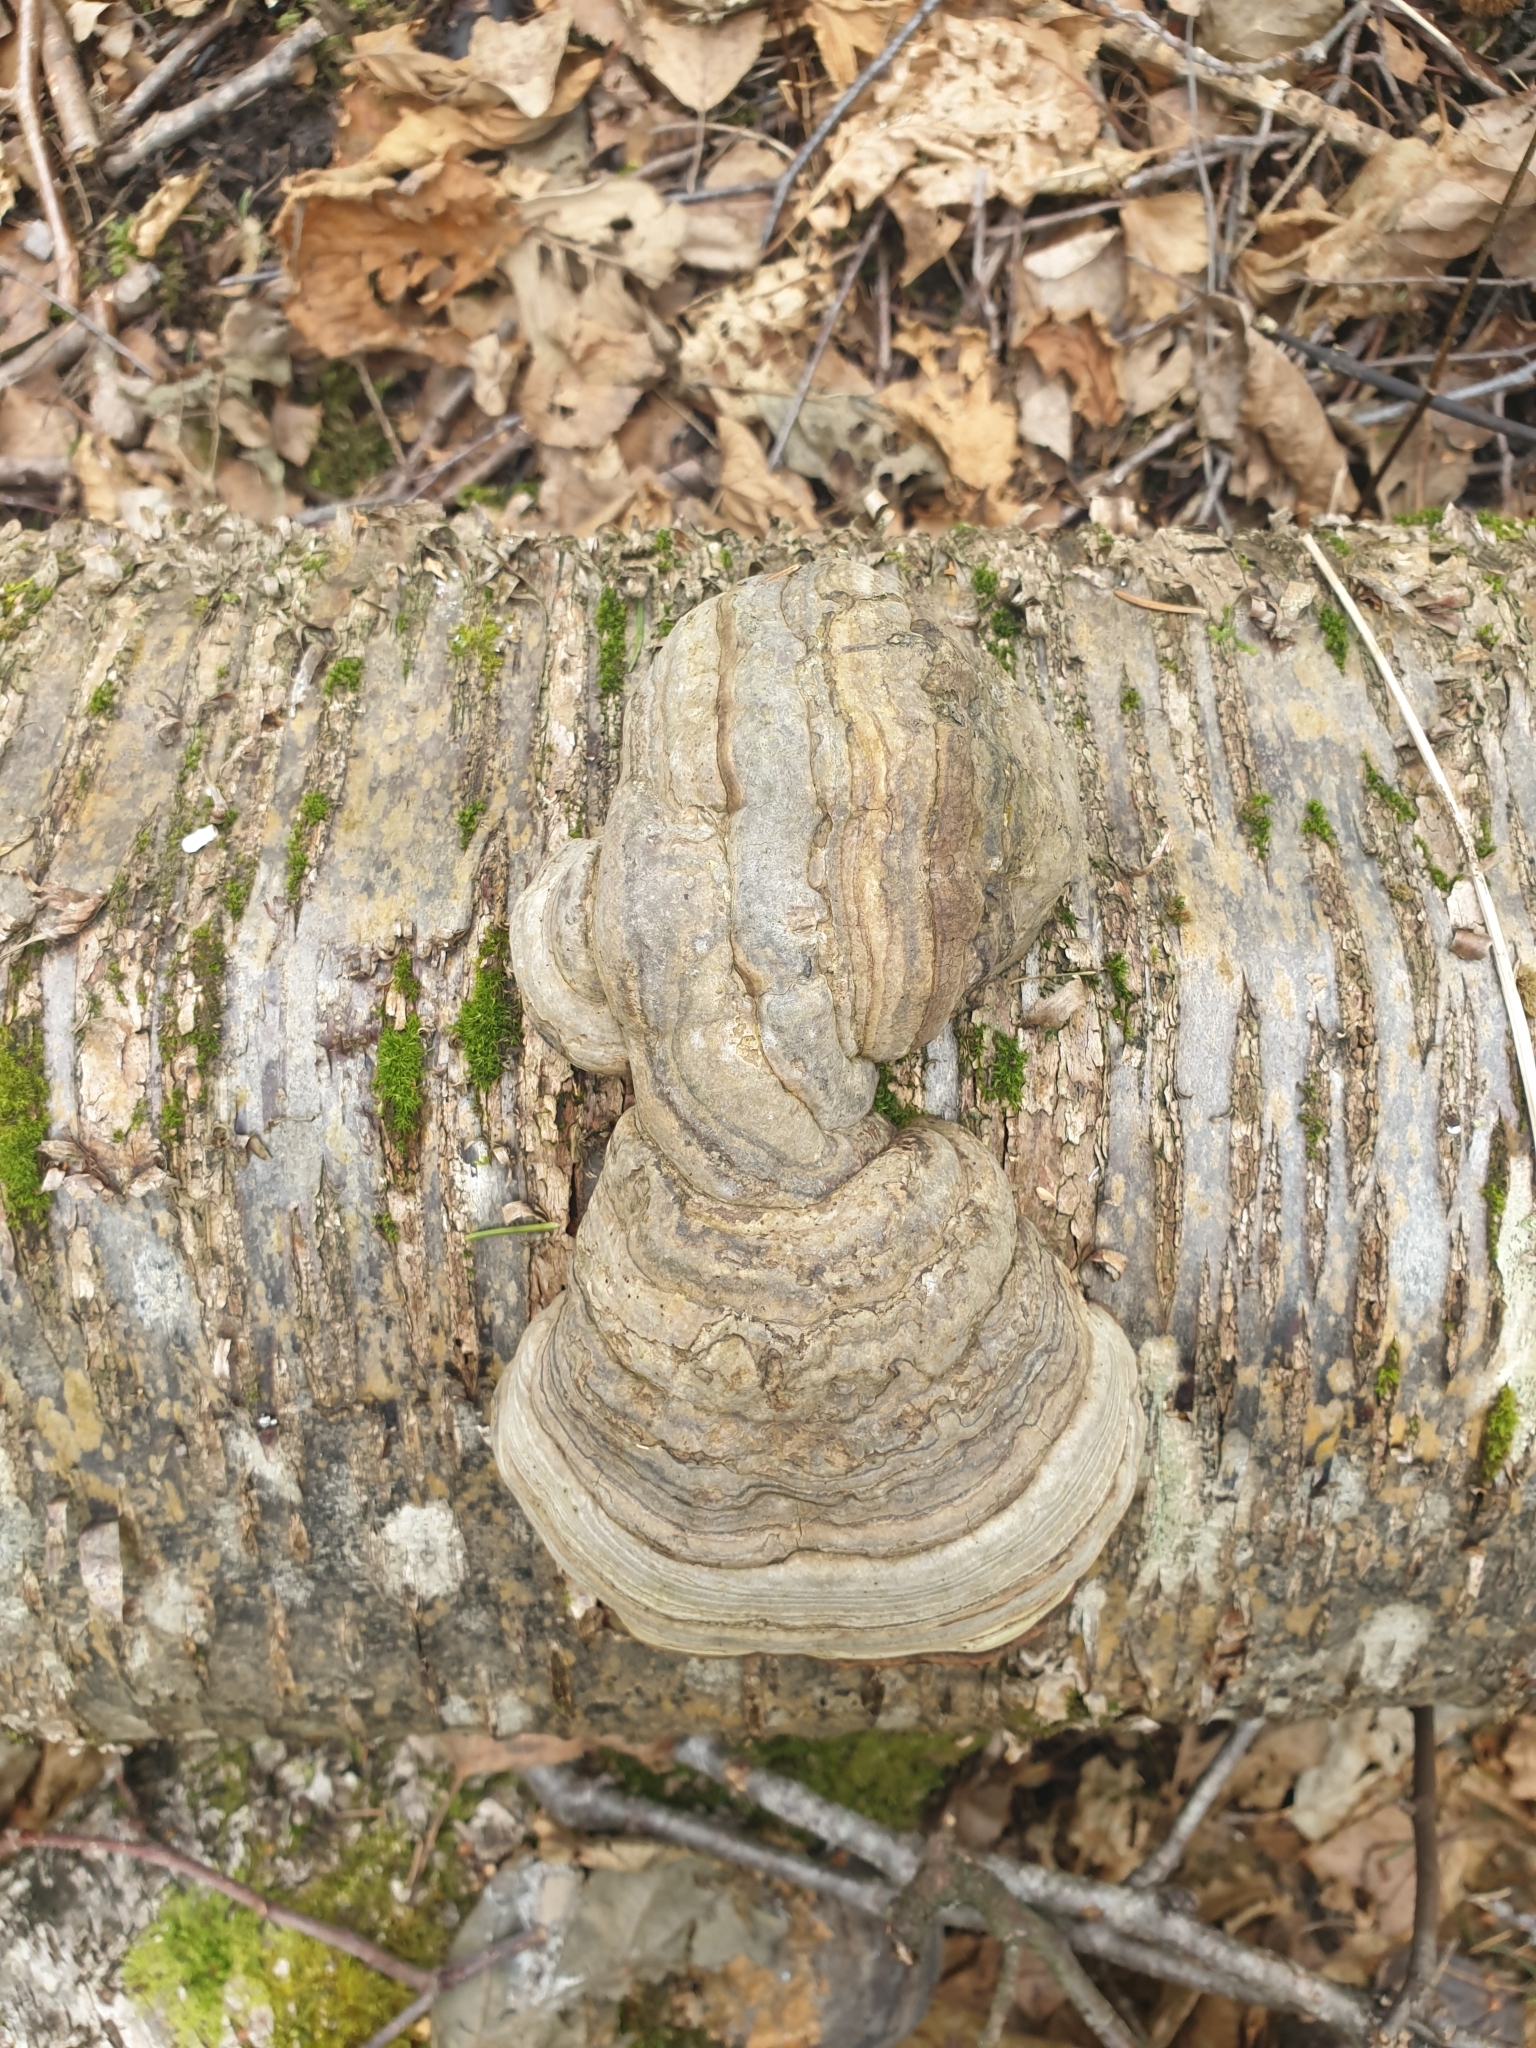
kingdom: Fungi
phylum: Basidiomycota
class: Agaricomycetes
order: Polyporales
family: Polyporaceae
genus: Fomes
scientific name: Fomes fomentarius
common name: Hoof fungus
